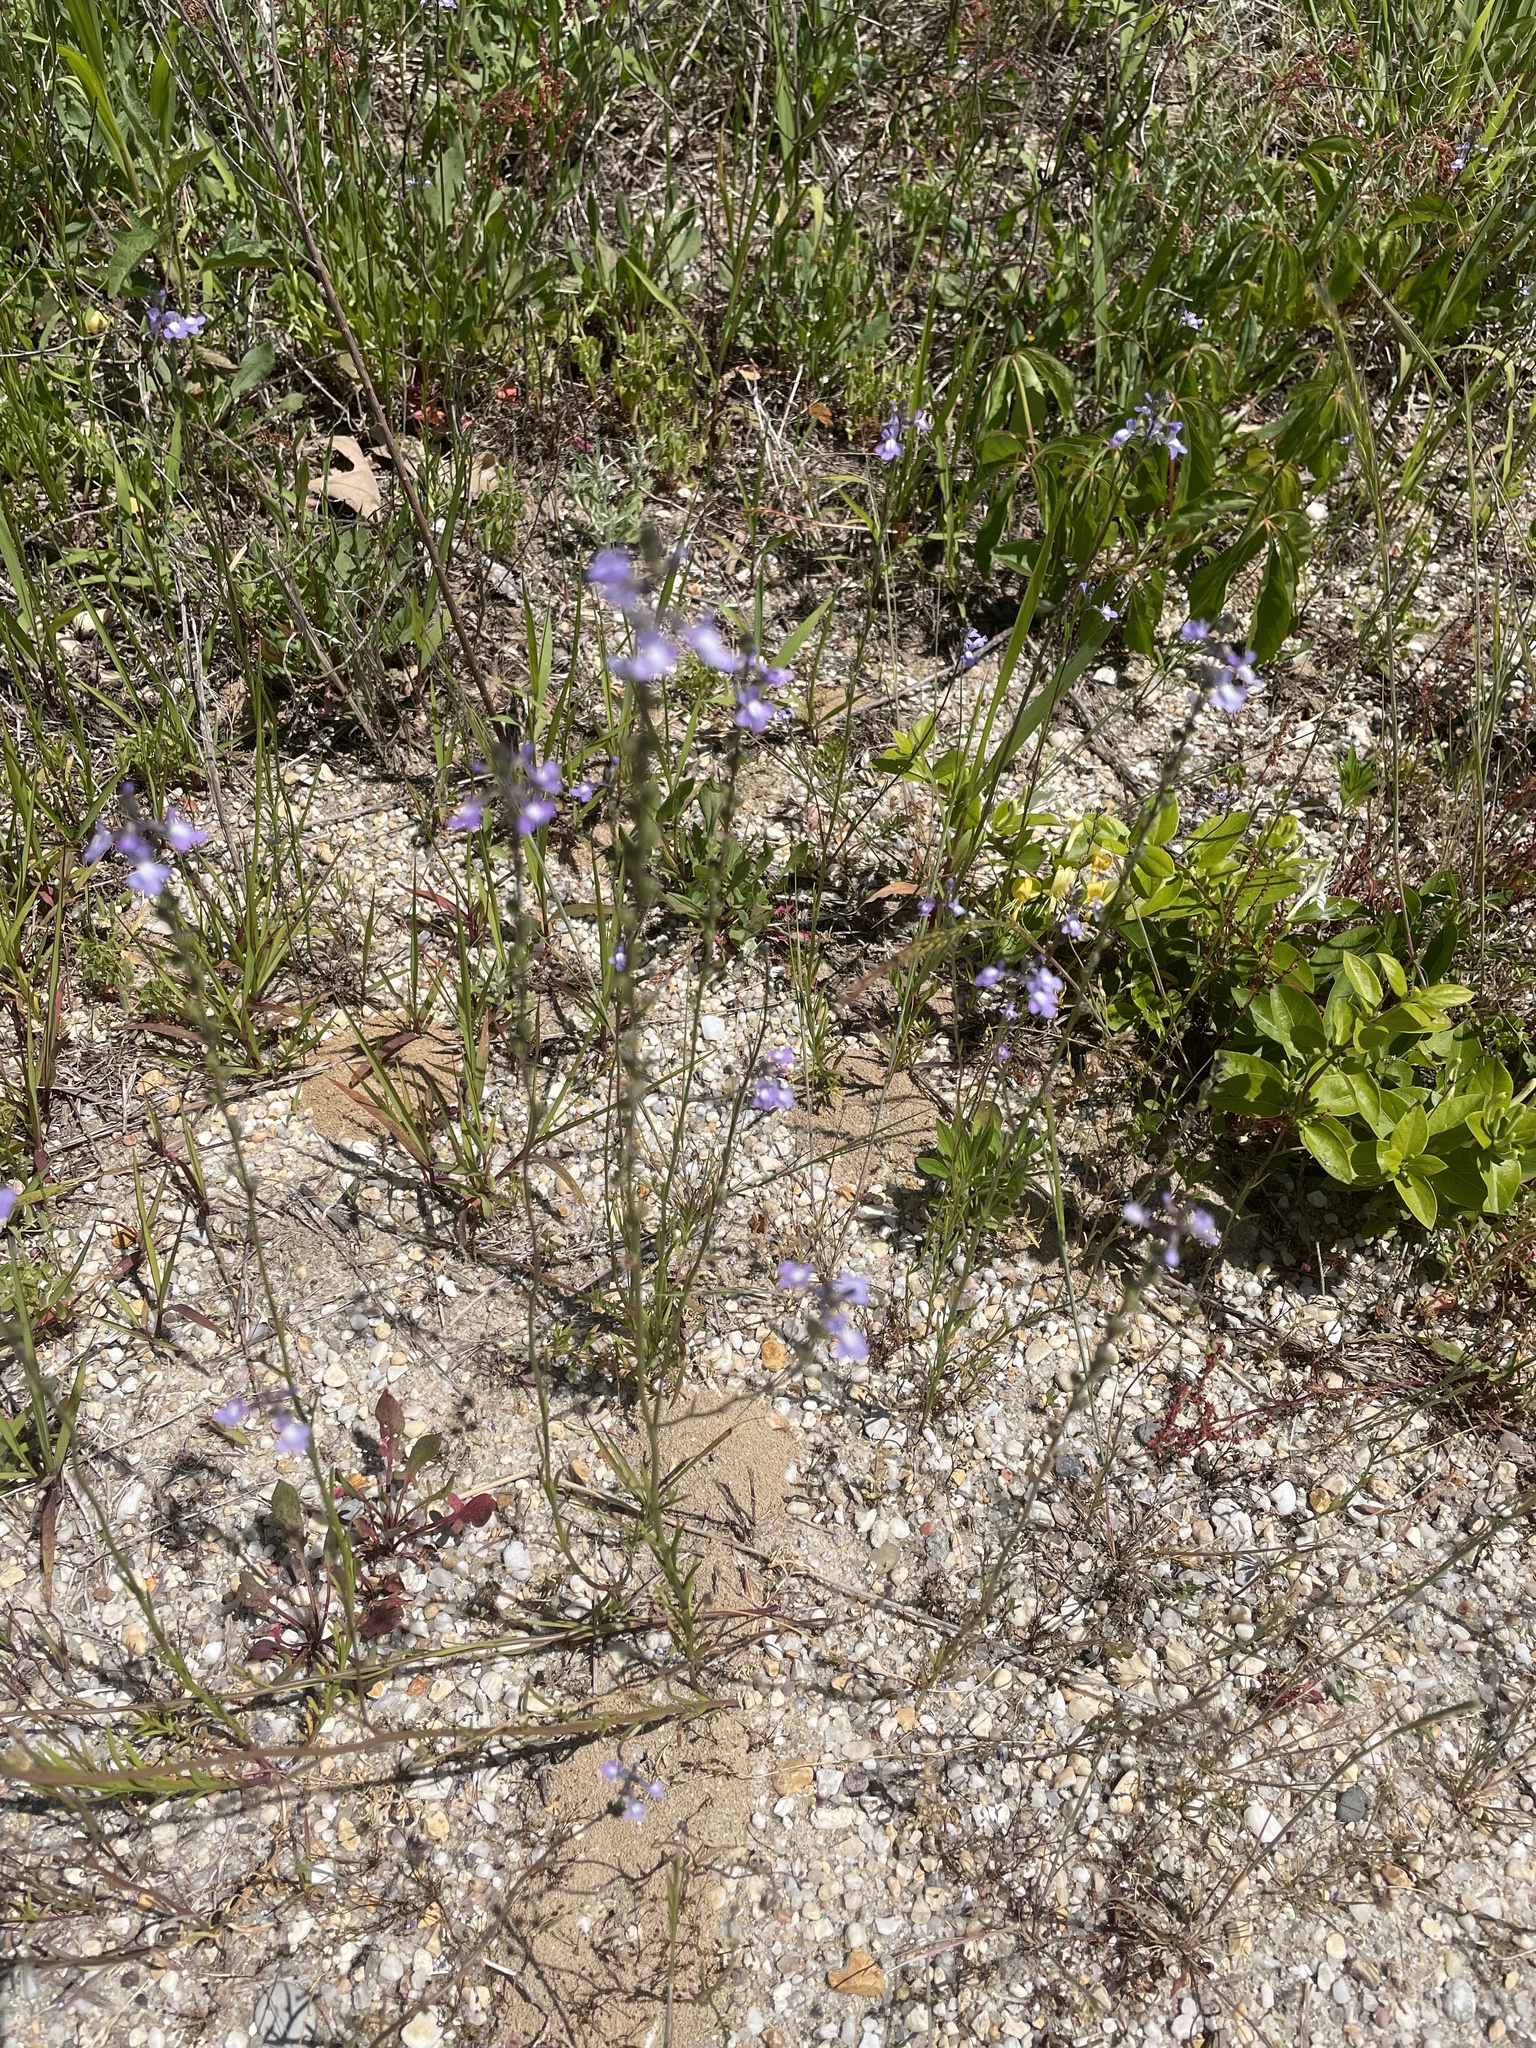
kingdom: Plantae
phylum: Tracheophyta
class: Magnoliopsida
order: Lamiales
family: Plantaginaceae
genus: Nuttallanthus
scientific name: Nuttallanthus canadensis
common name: Blue toadflax
